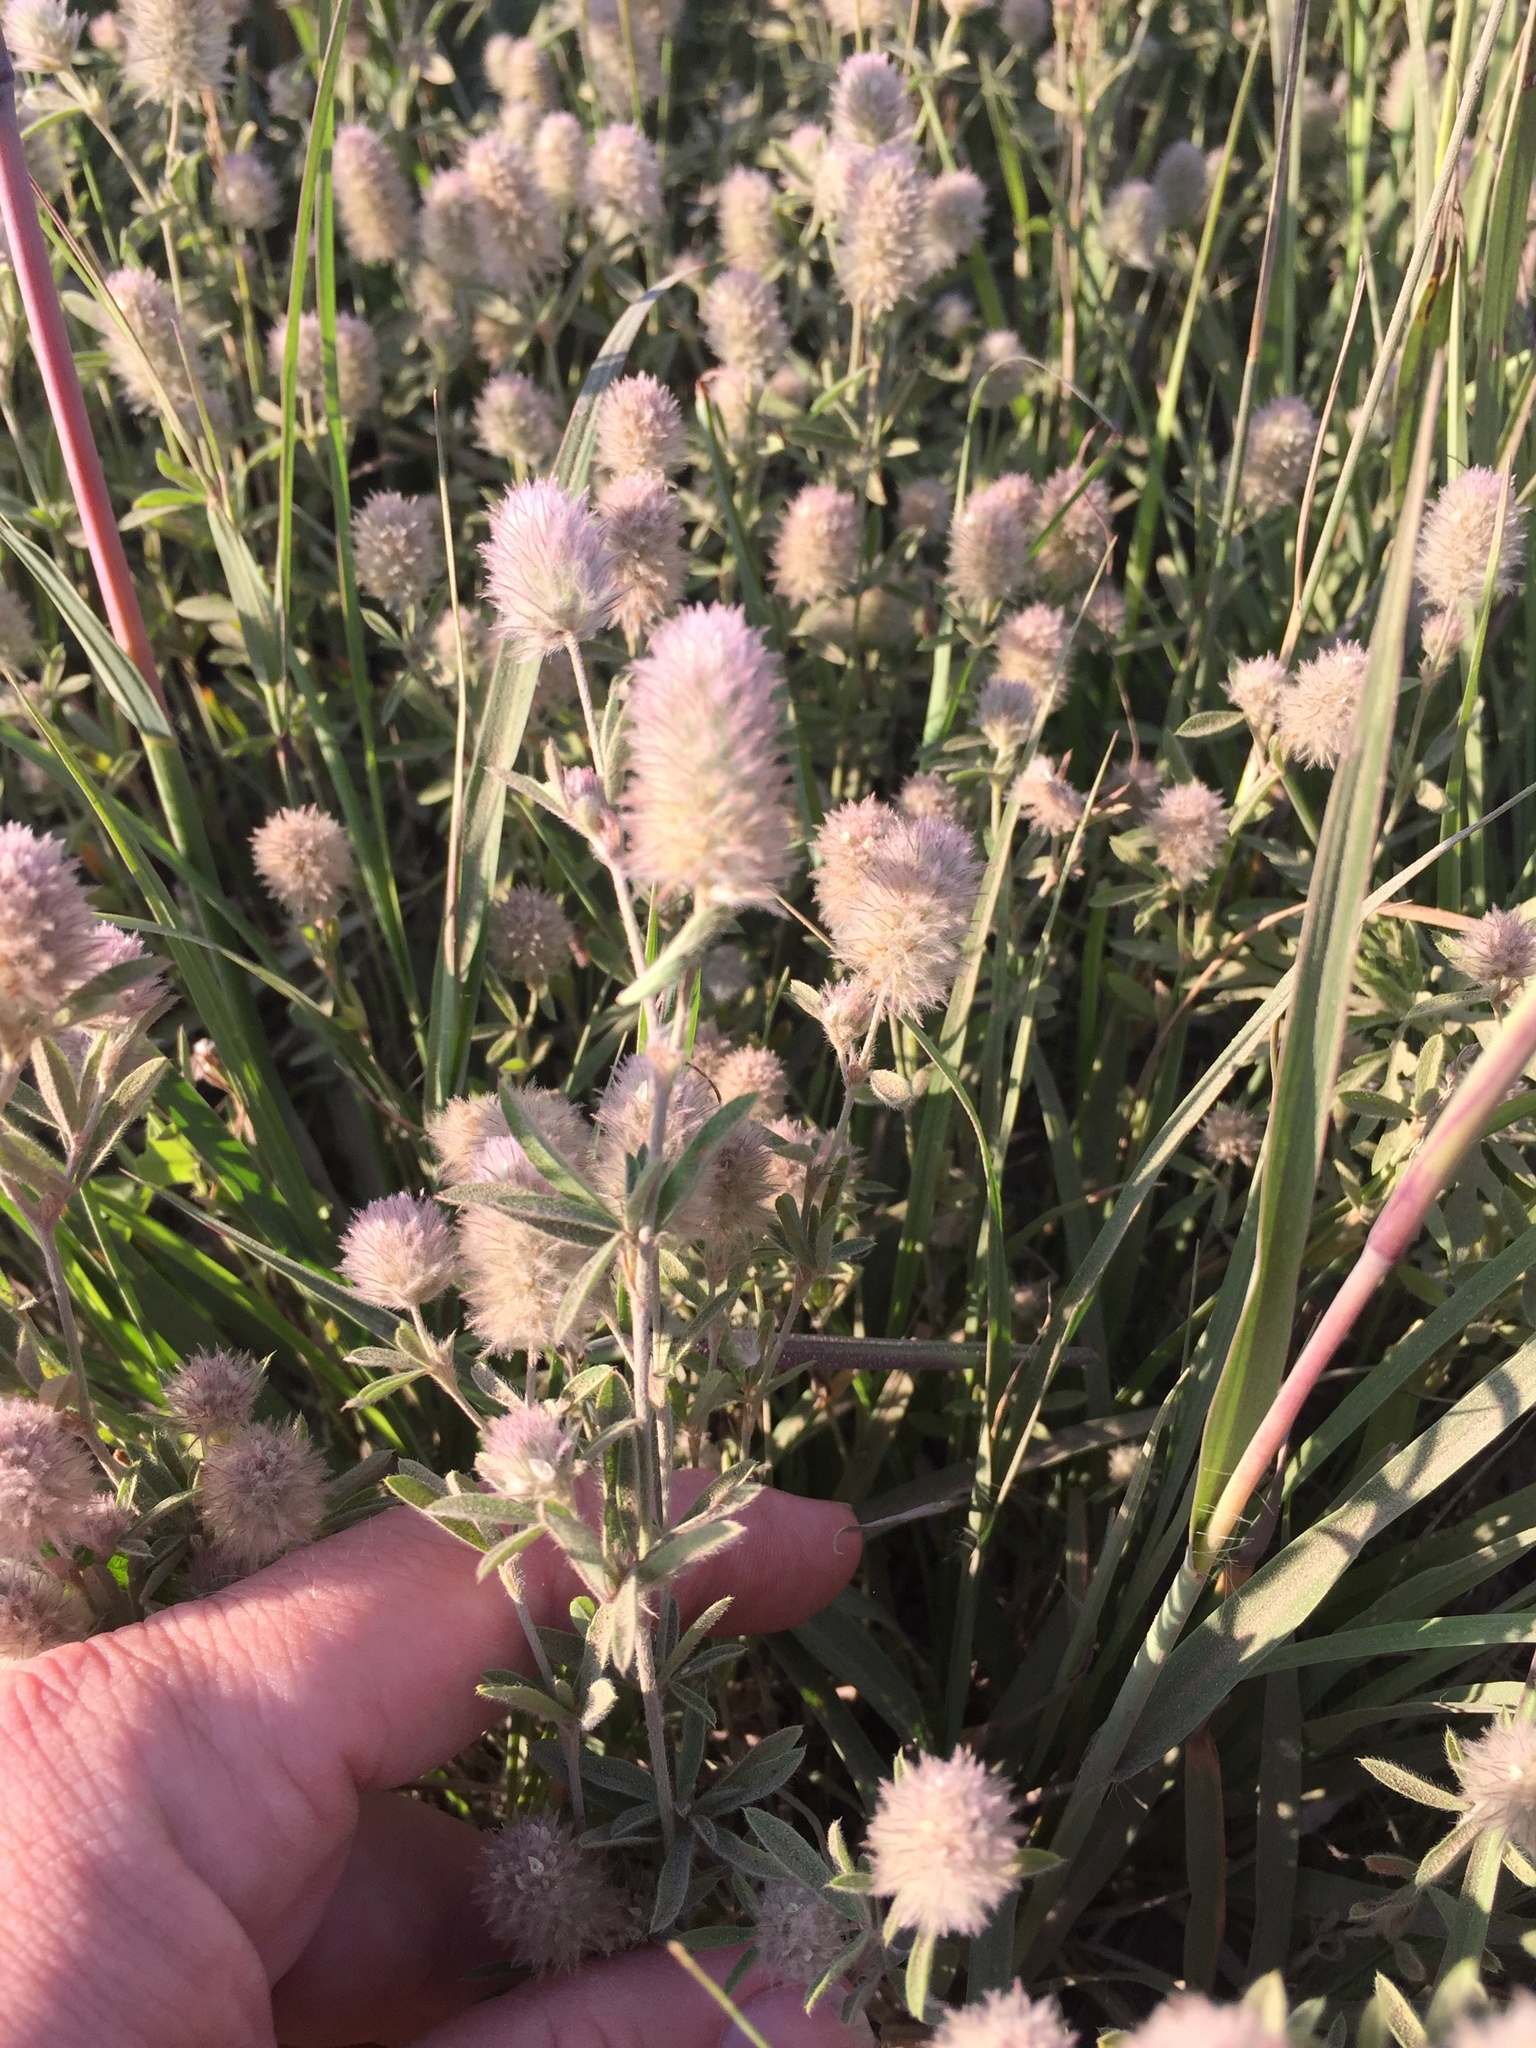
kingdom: Plantae
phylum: Tracheophyta
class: Magnoliopsida
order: Fabales
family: Fabaceae
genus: Trifolium
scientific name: Trifolium arvense
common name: Hare's-foot clover
